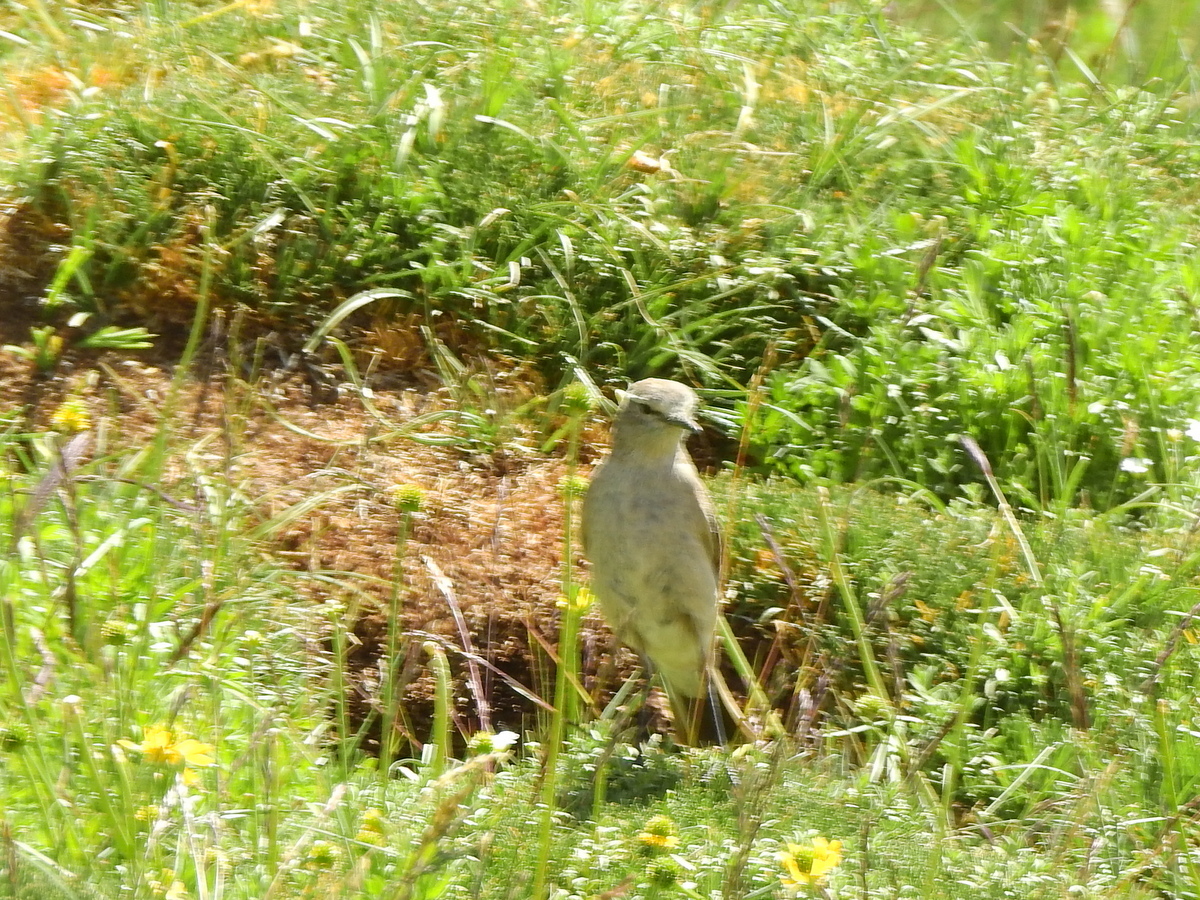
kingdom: Animalia
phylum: Chordata
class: Aves
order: Passeriformes
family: Tyrannidae
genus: Muscisaxicola
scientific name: Muscisaxicola flavinucha
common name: Ochre-naped ground tyrant
